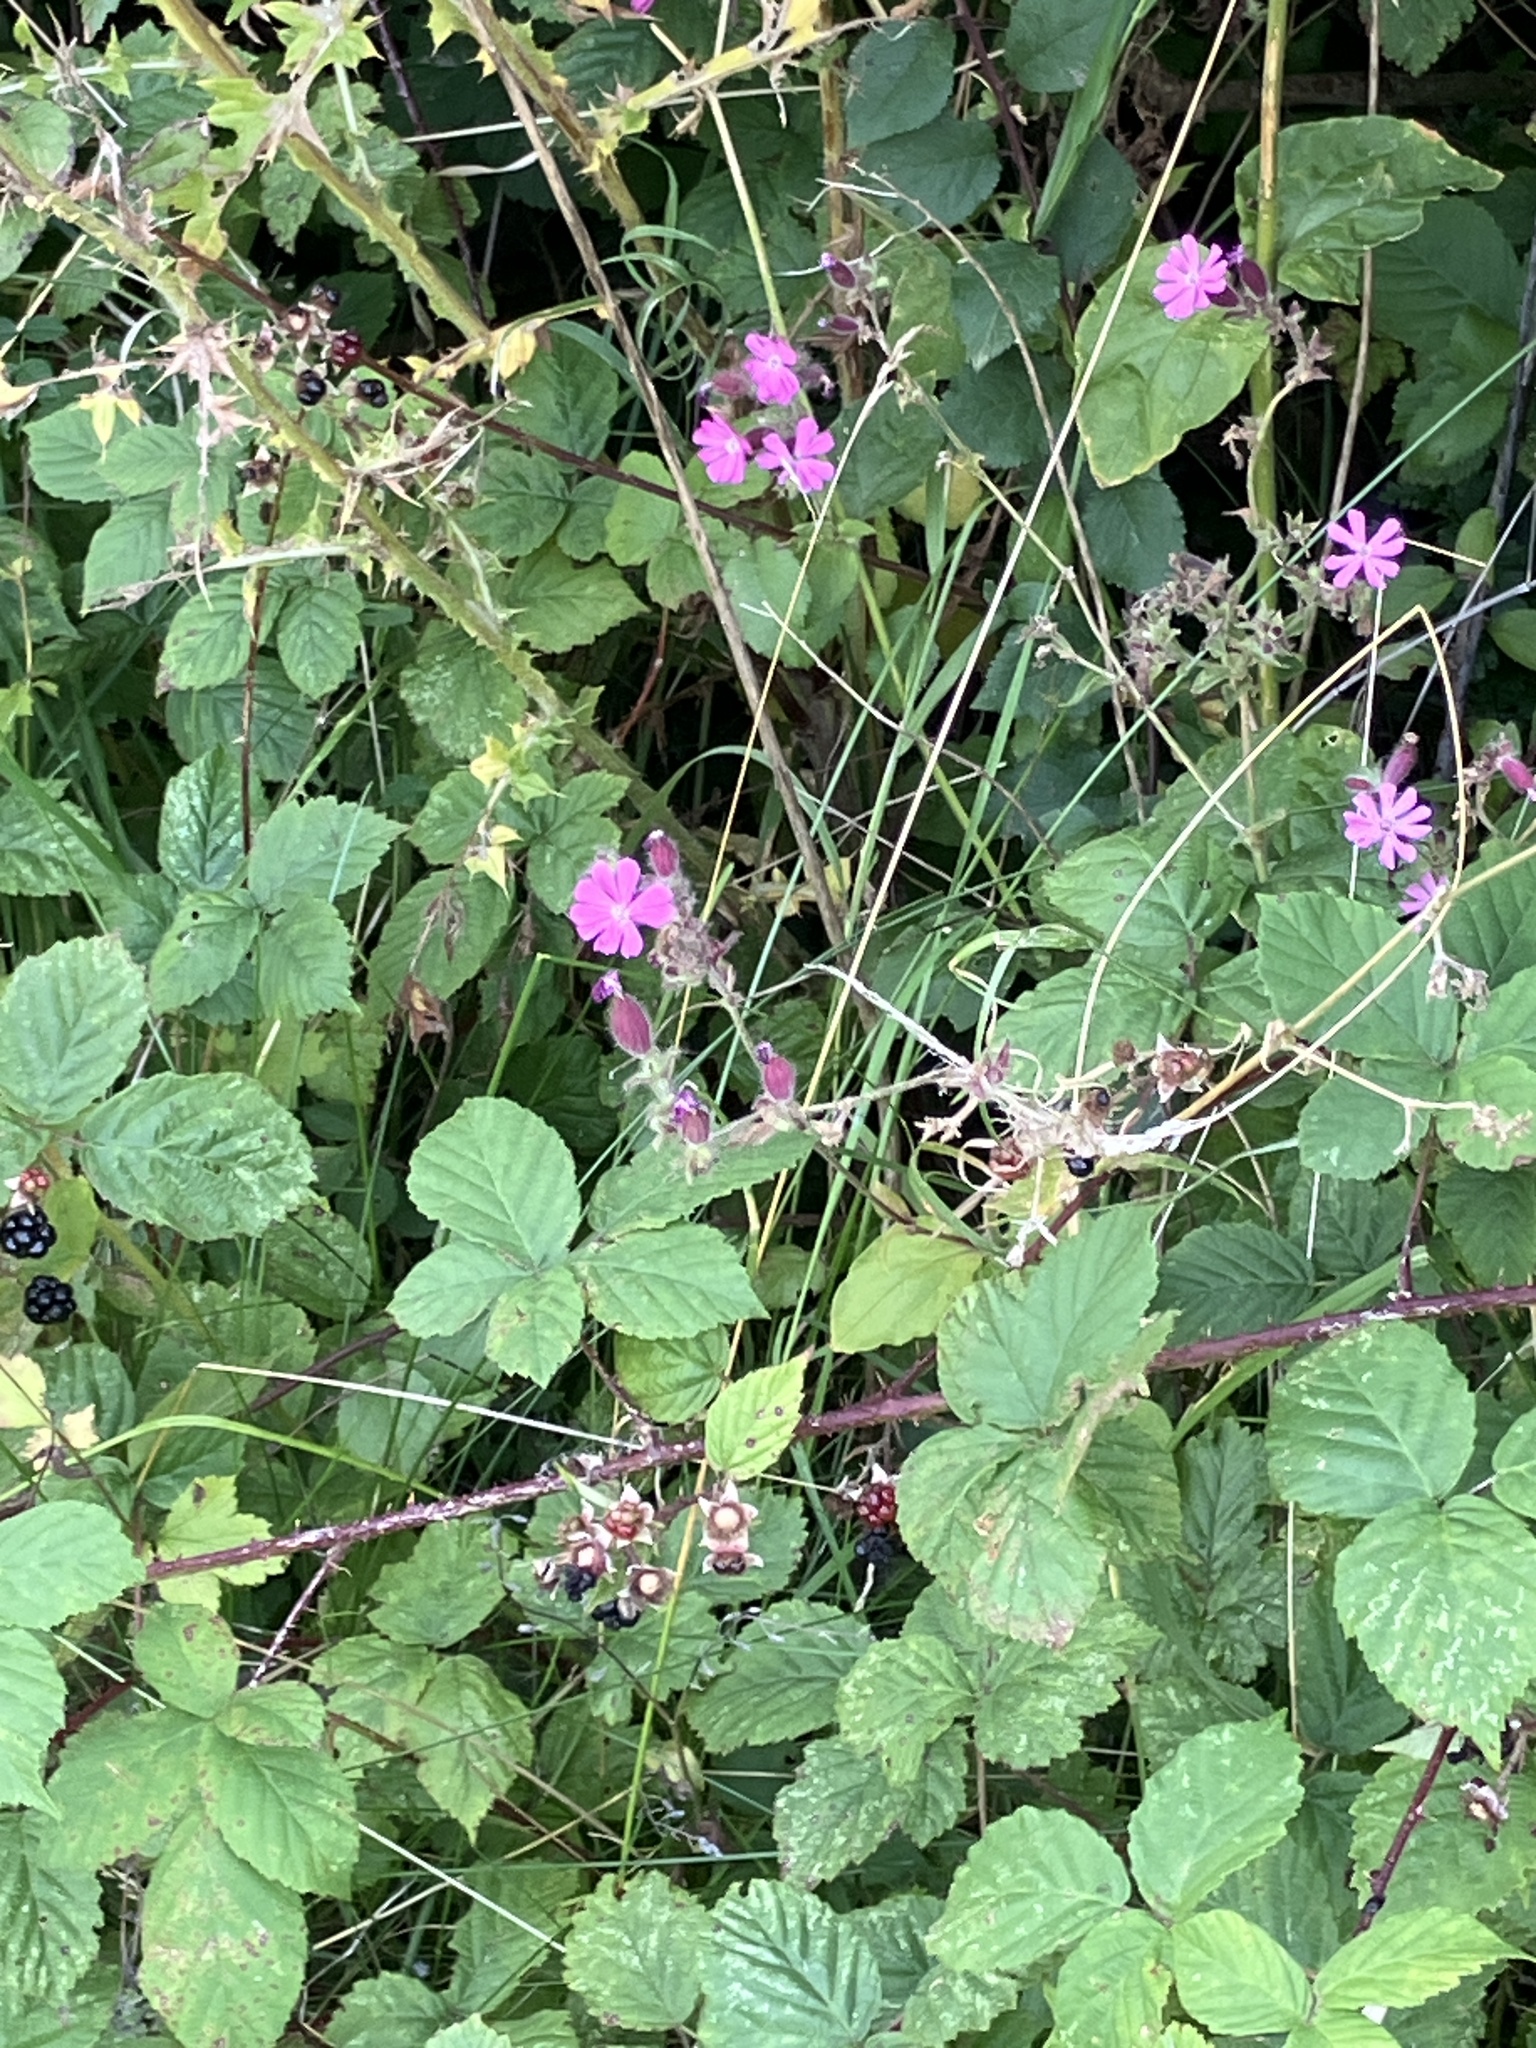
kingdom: Plantae
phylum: Tracheophyta
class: Magnoliopsida
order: Caryophyllales
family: Caryophyllaceae
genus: Silene
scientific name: Silene dioica
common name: Red campion
